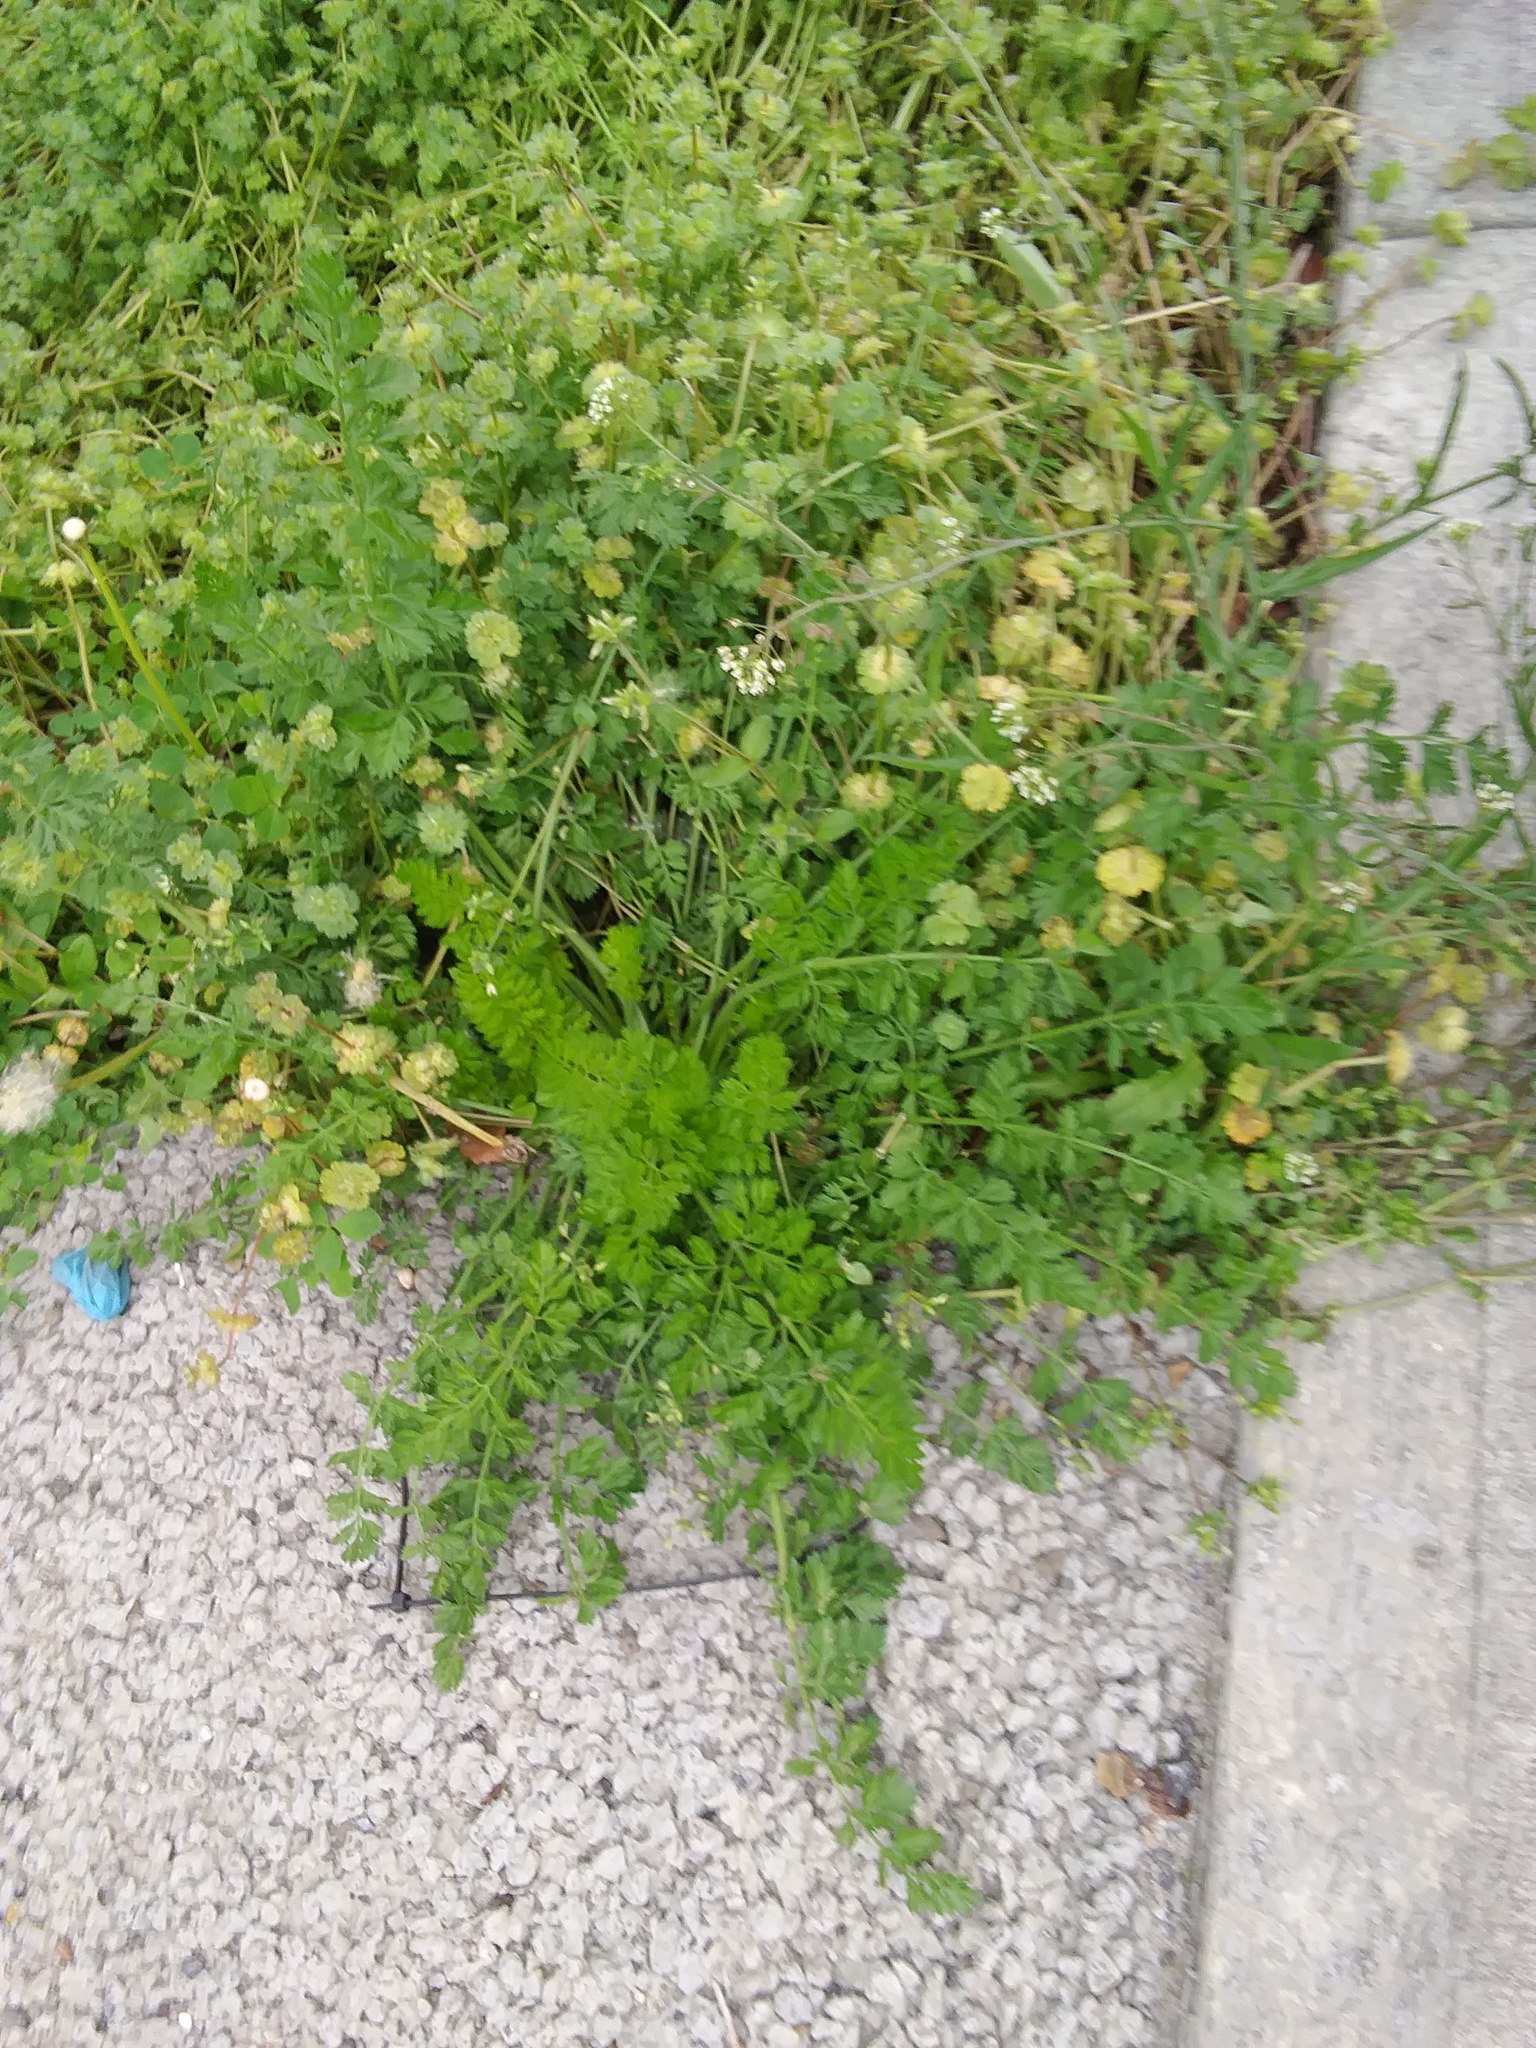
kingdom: Plantae
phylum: Tracheophyta
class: Magnoliopsida
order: Apiales
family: Apiaceae
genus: Daucus
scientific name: Daucus carota
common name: Wild carrot
